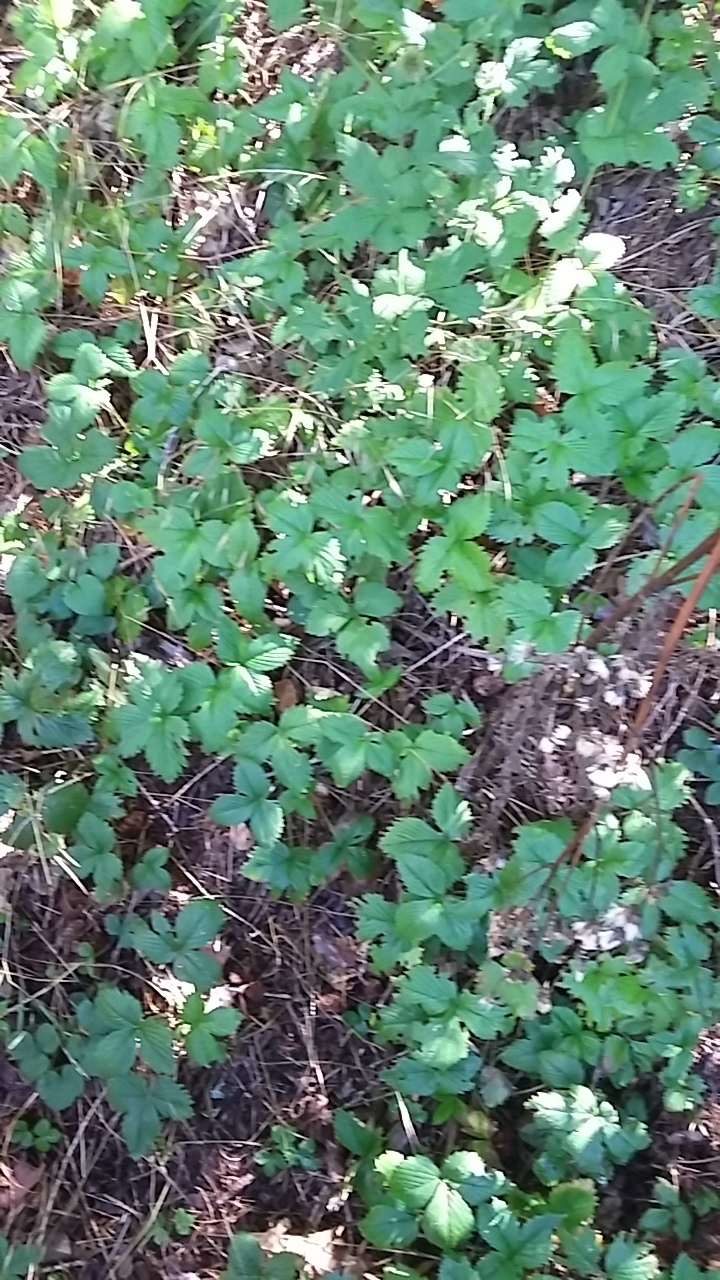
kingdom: Plantae
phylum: Tracheophyta
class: Magnoliopsida
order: Rosales
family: Rosaceae
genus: Fragaria
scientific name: Fragaria vesca
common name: Wild strawberry
